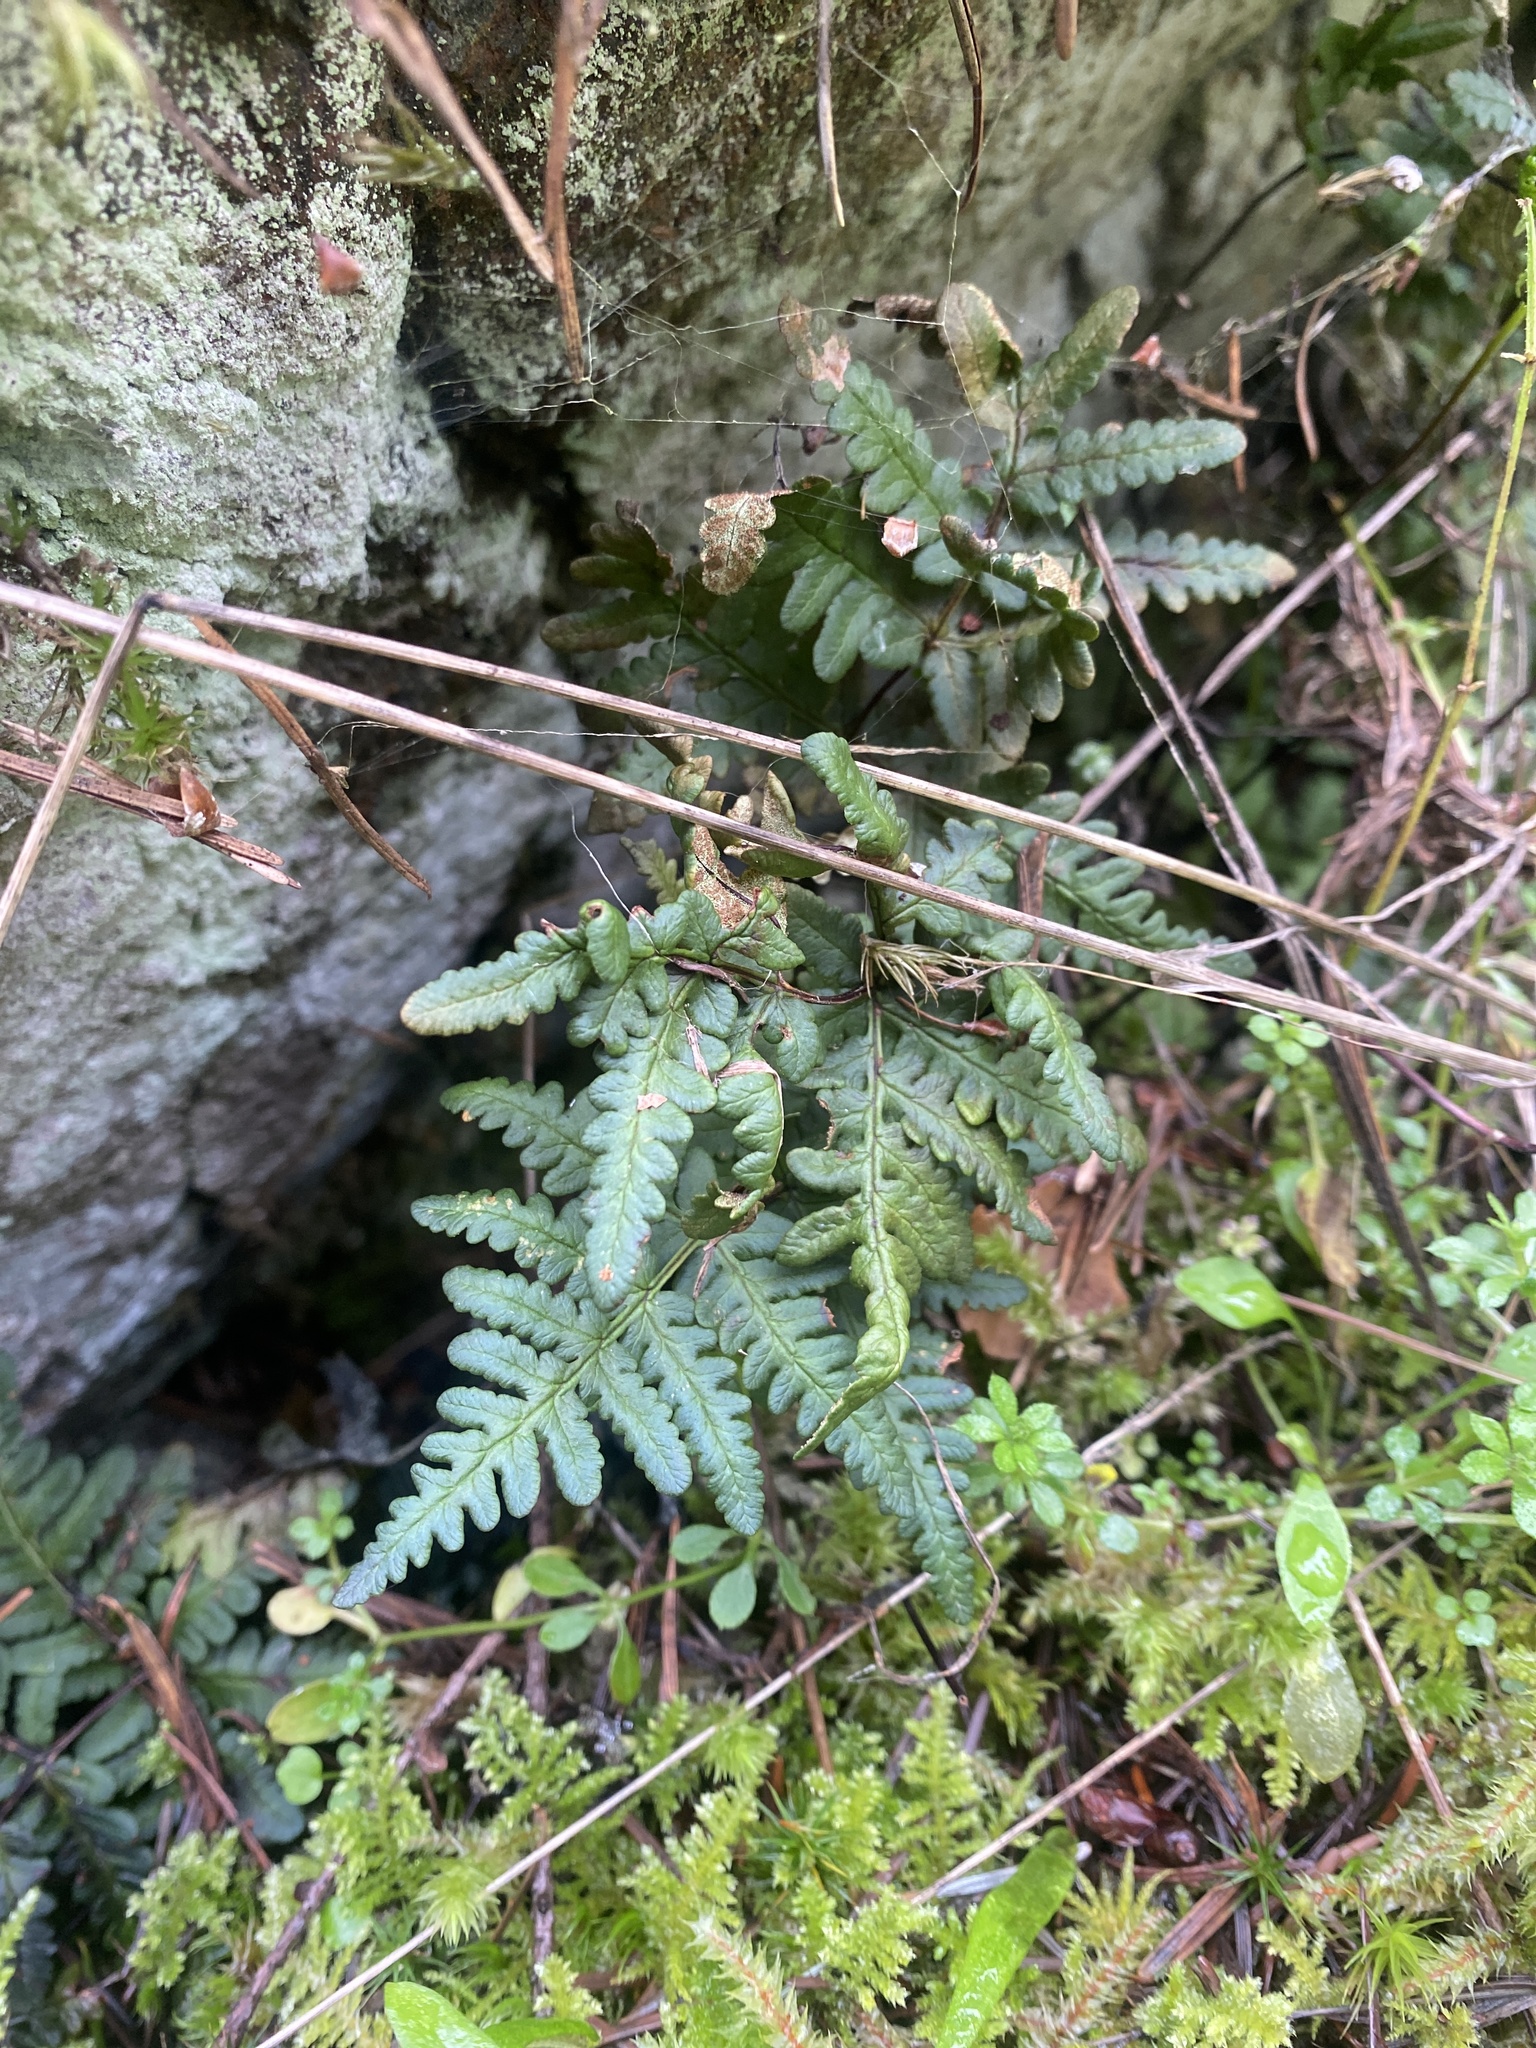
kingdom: Plantae
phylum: Tracheophyta
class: Polypodiopsida
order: Polypodiales
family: Pteridaceae
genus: Pentagramma
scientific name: Pentagramma triangularis
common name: Gold fern
